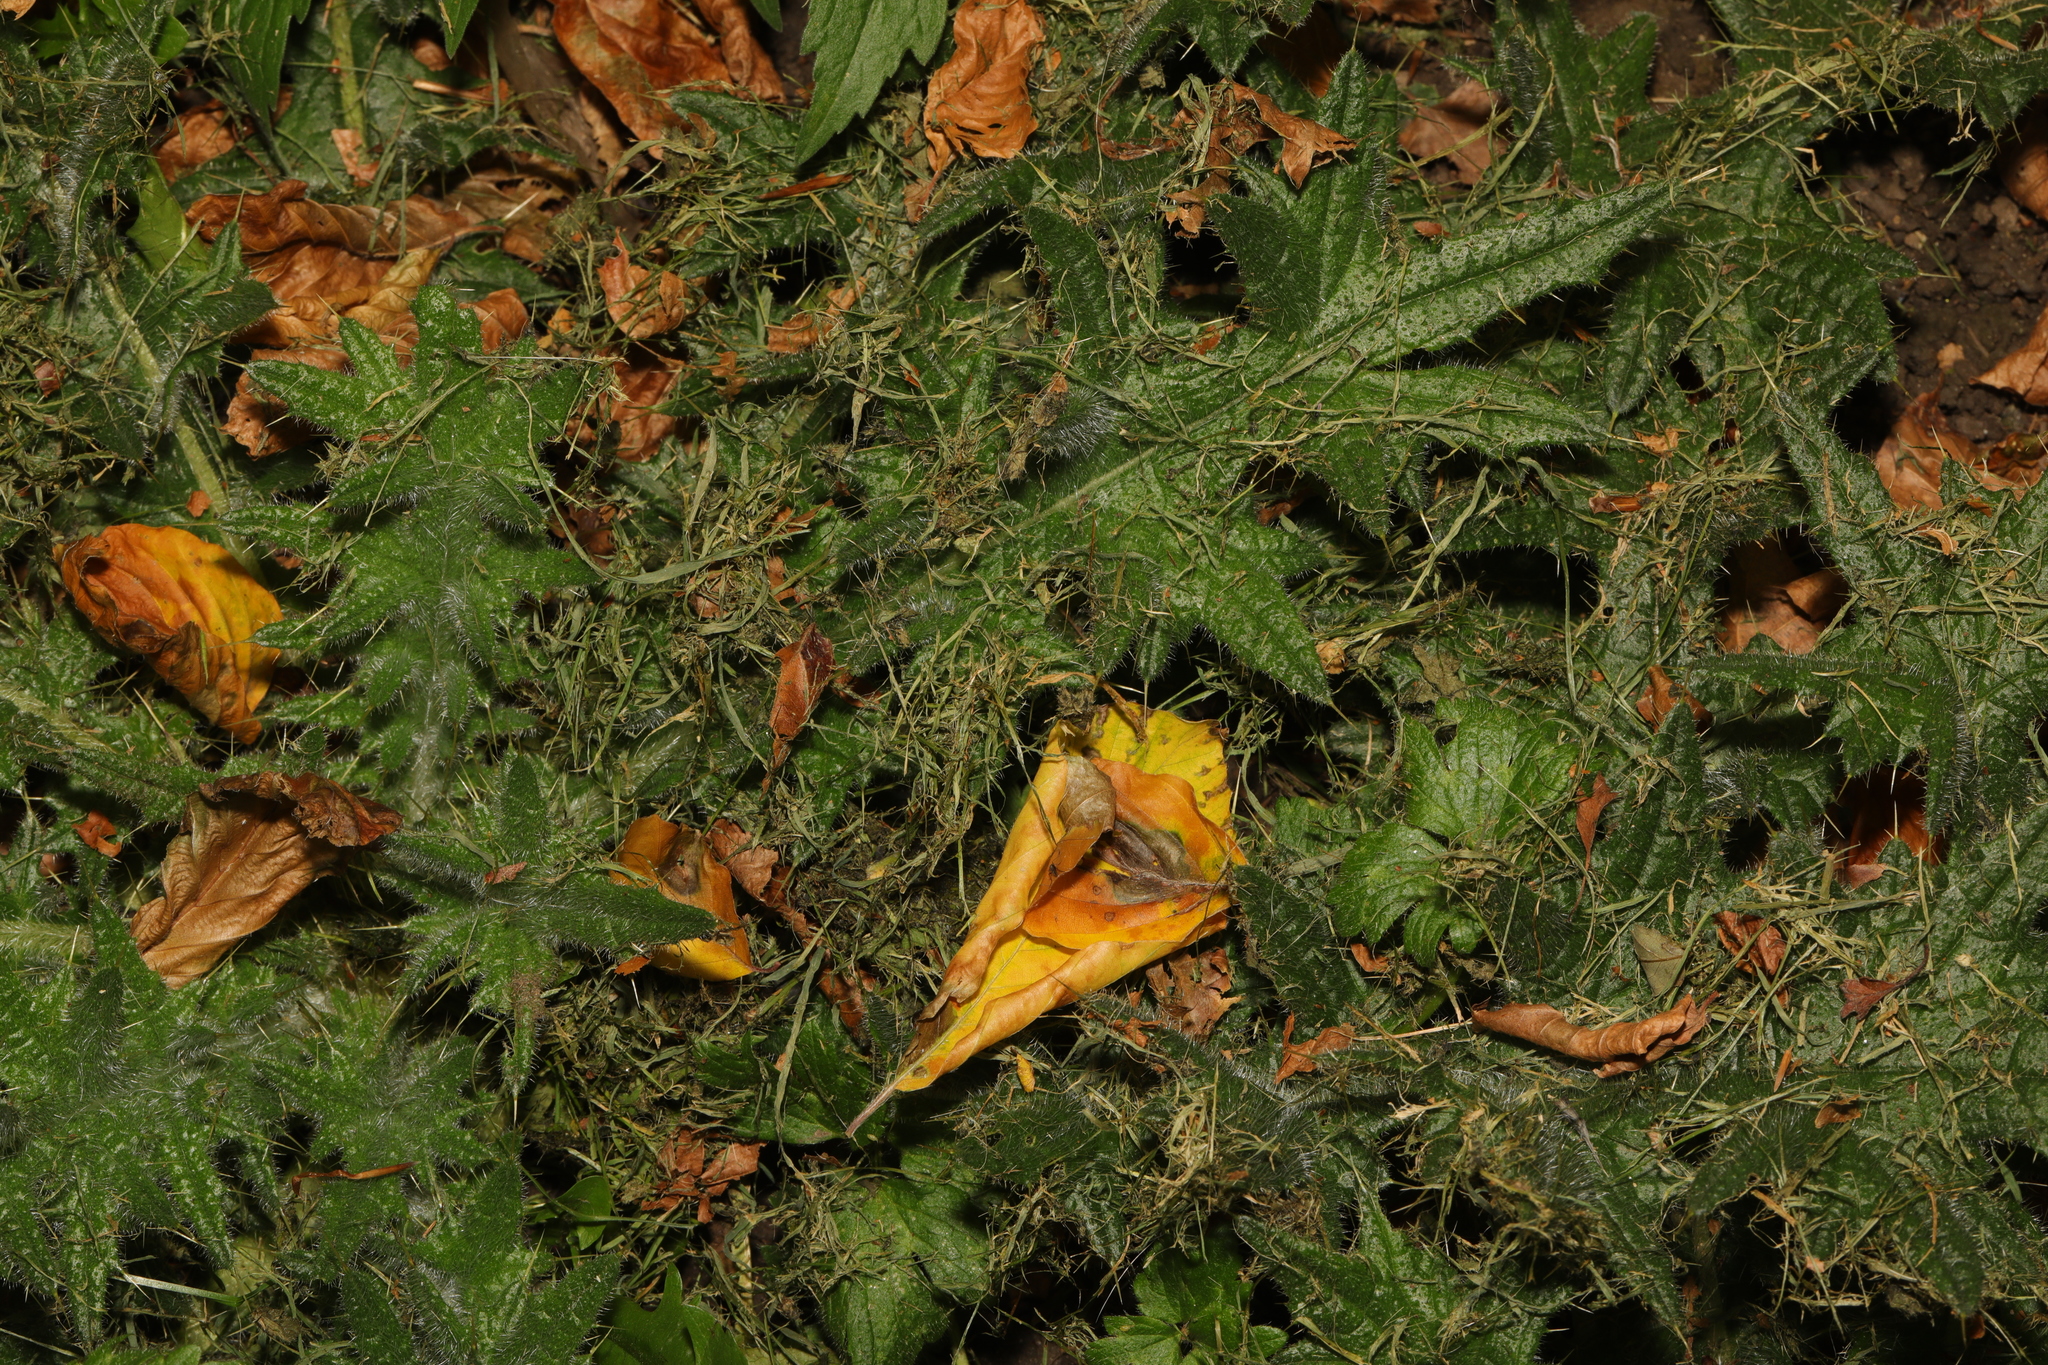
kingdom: Plantae
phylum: Tracheophyta
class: Magnoliopsida
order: Asterales
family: Asteraceae
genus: Cirsium
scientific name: Cirsium vulgare
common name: Bull thistle
